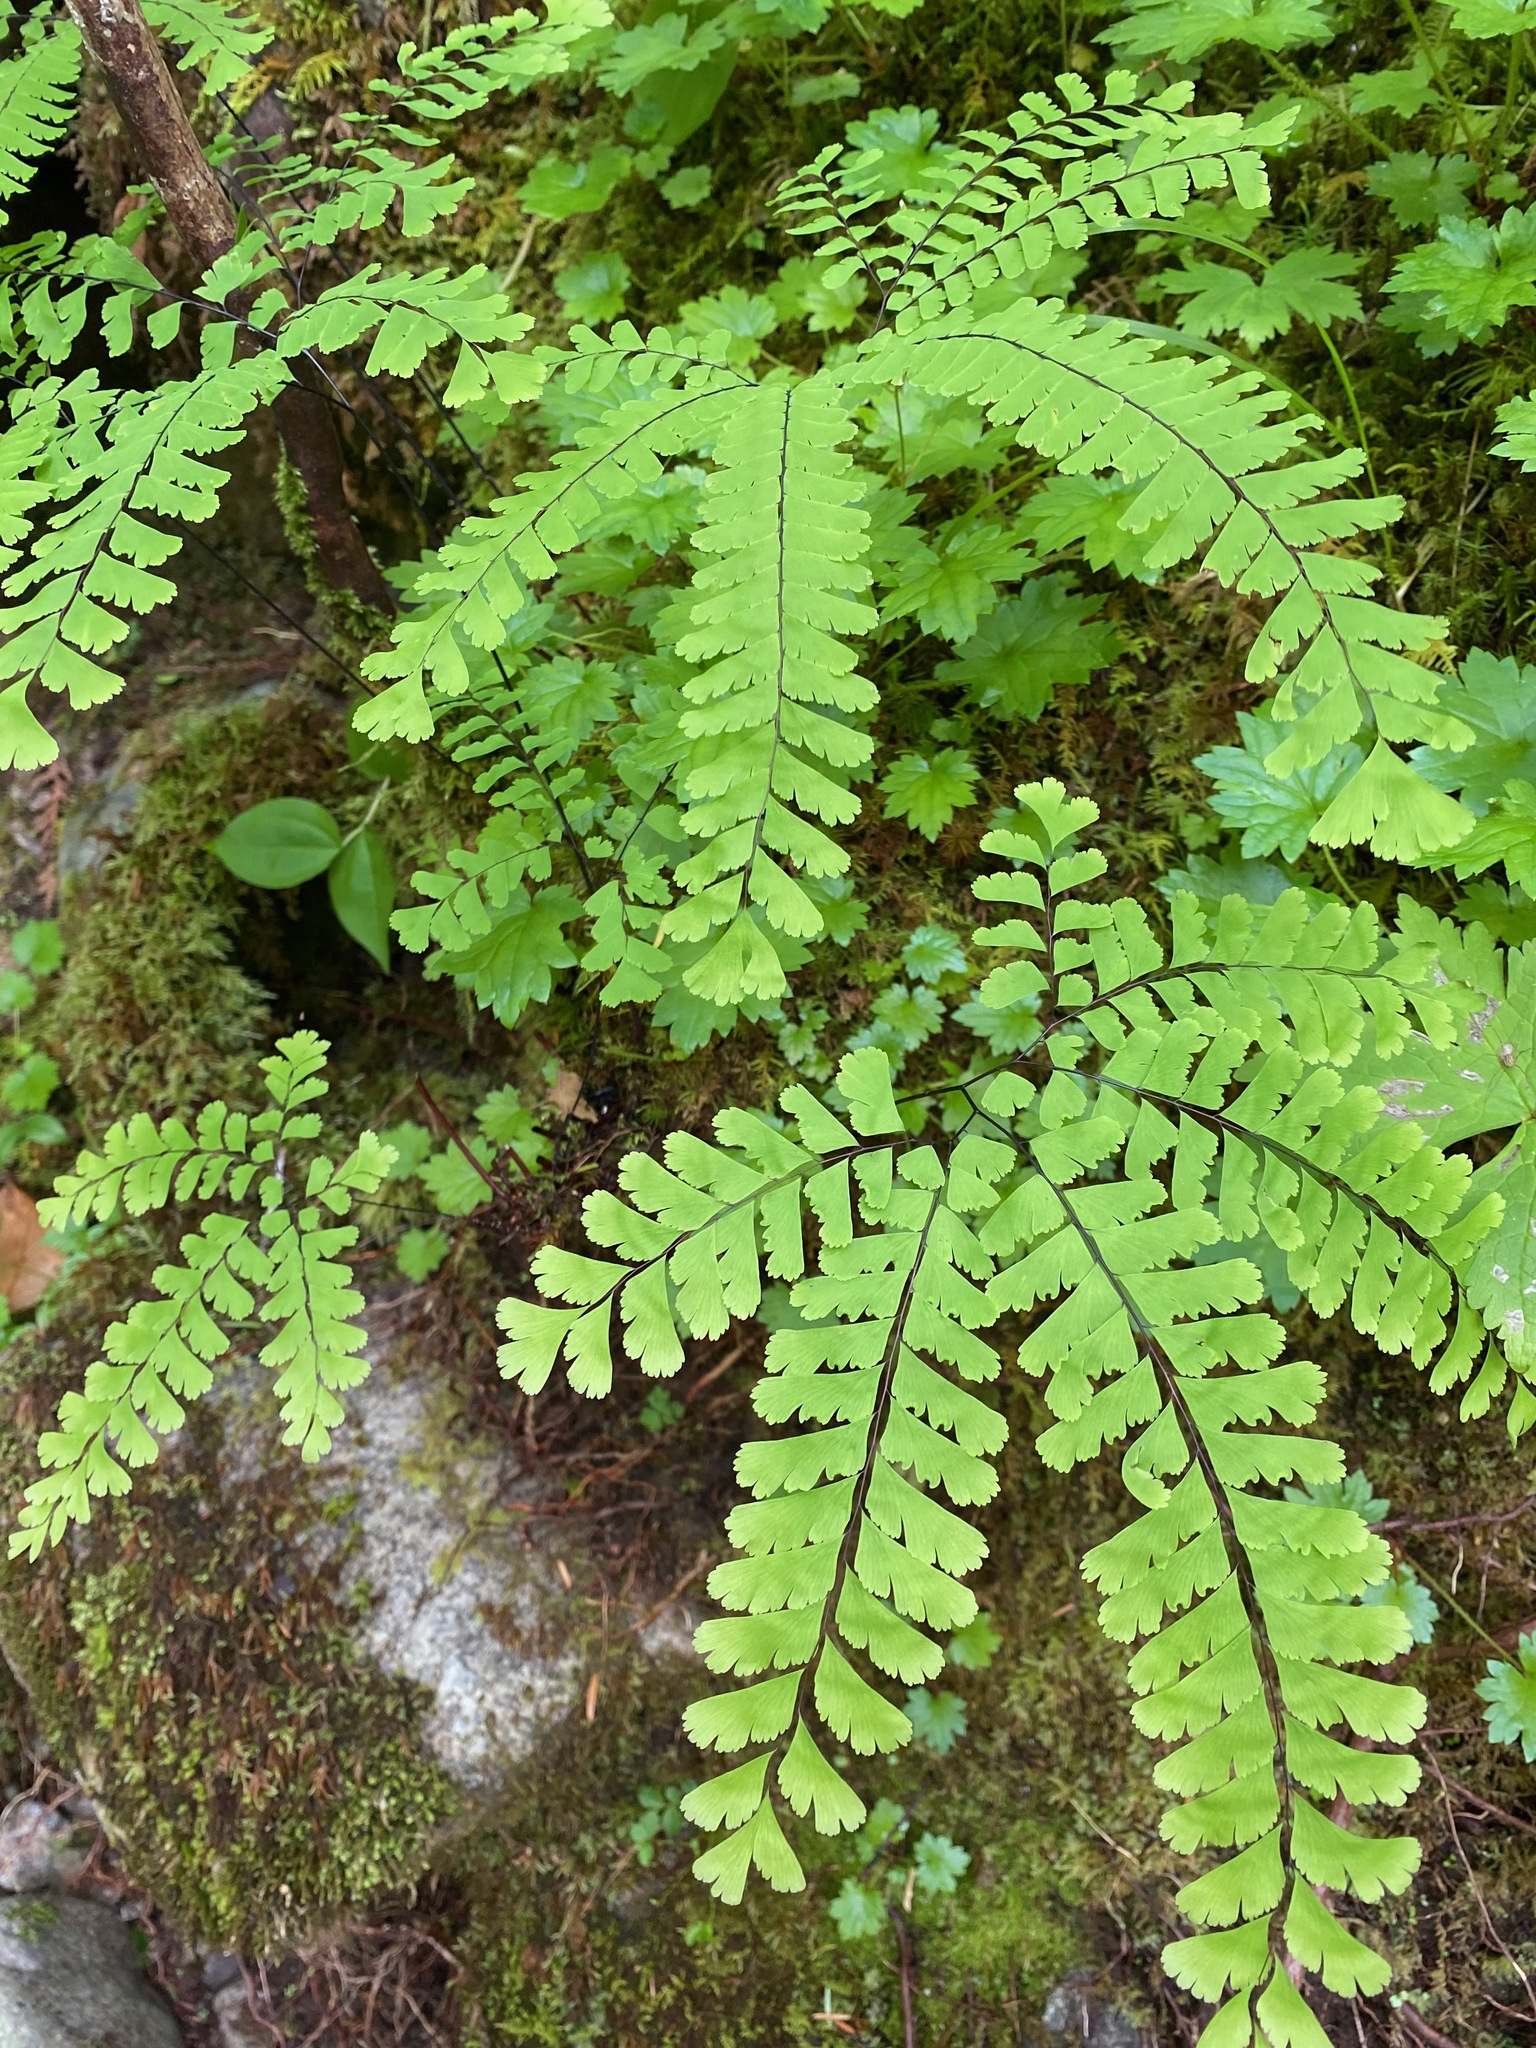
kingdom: Plantae
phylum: Tracheophyta
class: Polypodiopsida
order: Polypodiales
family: Pteridaceae
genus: Adiantum
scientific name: Adiantum aleuticum
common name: Aleutian maidenhair fern
